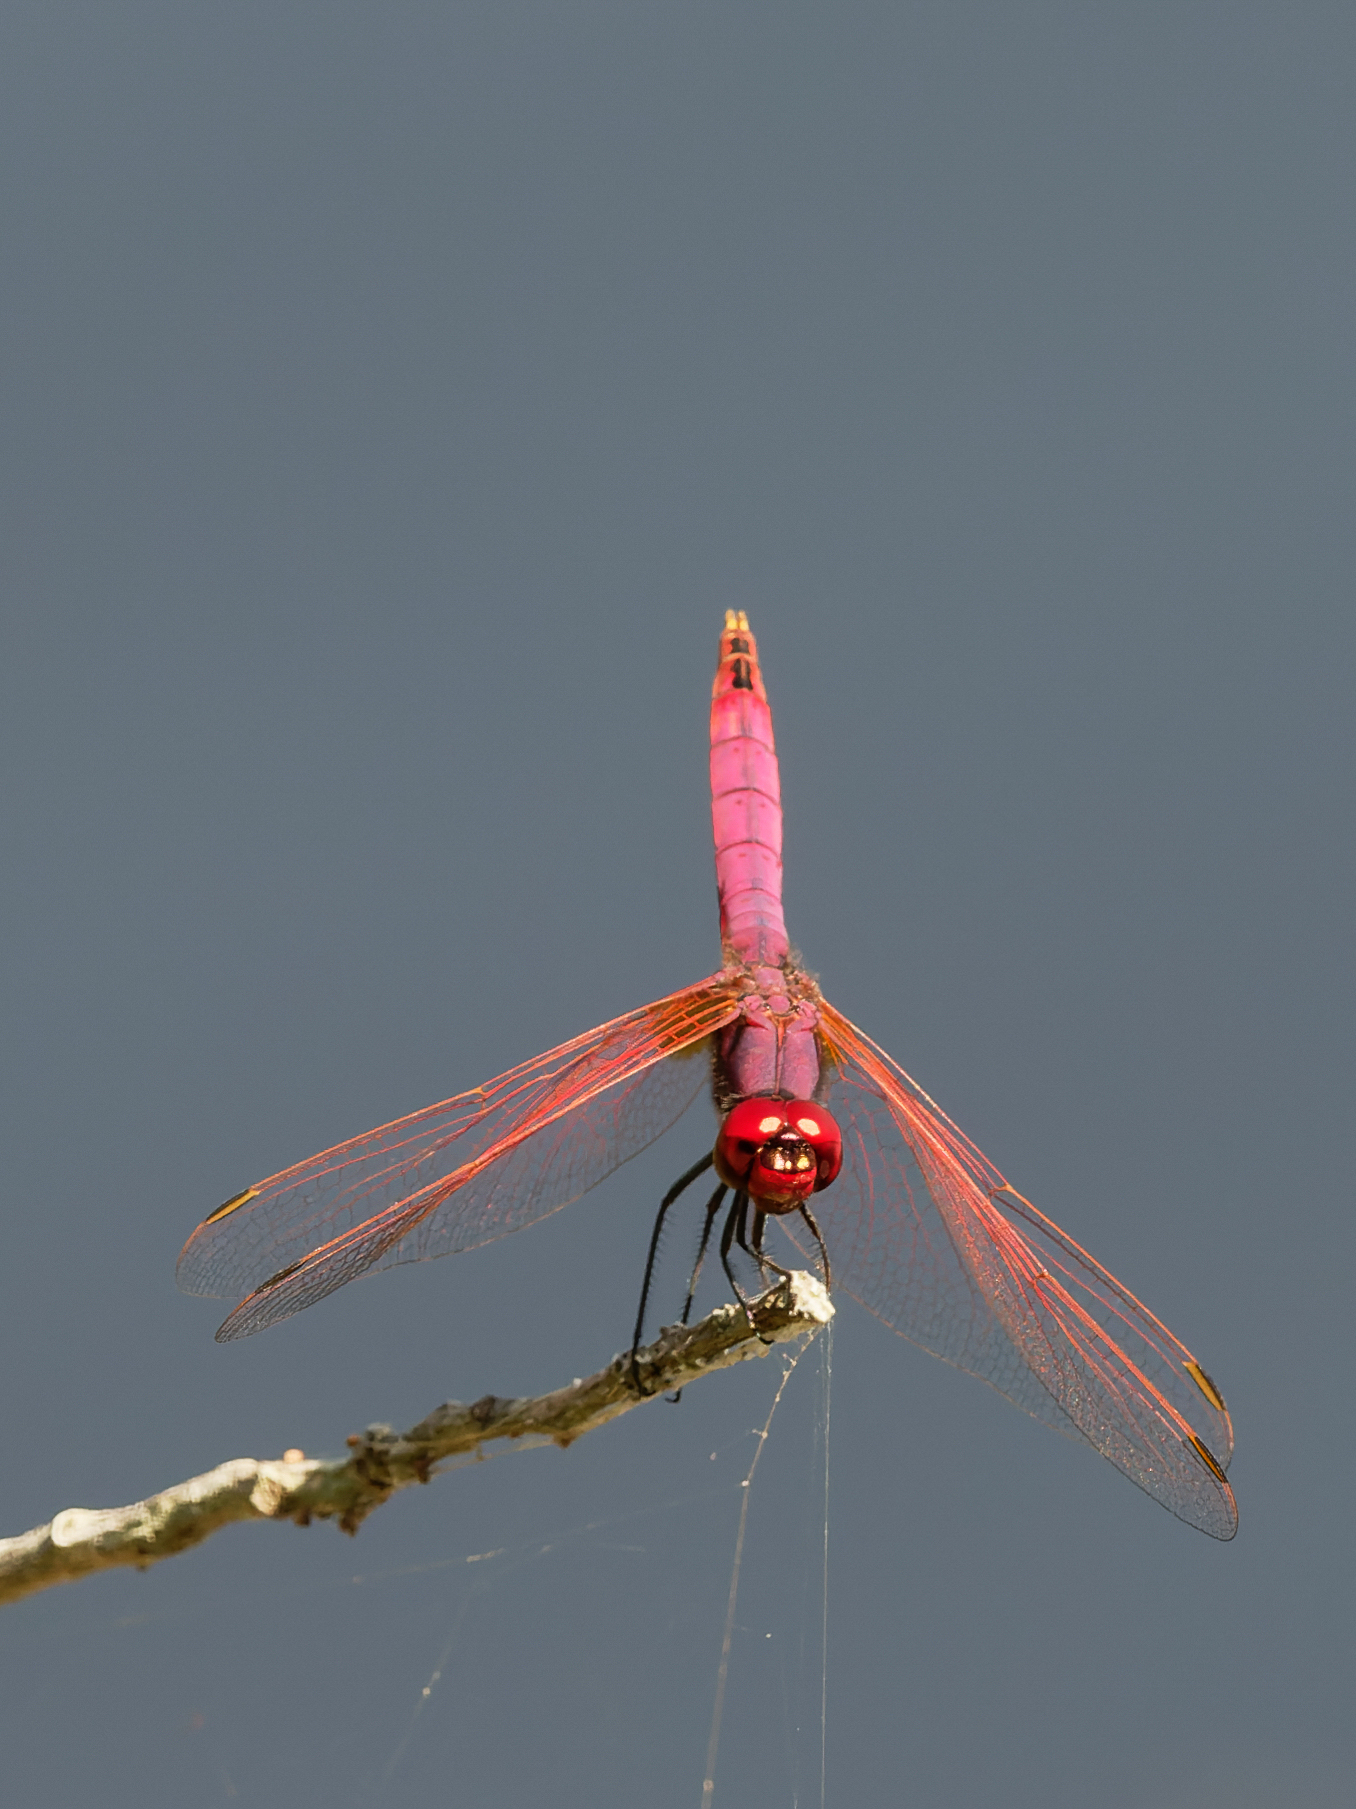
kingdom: Animalia
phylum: Arthropoda
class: Insecta
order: Odonata
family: Libellulidae
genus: Trithemis
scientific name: Trithemis annulata
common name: Violet dropwing
